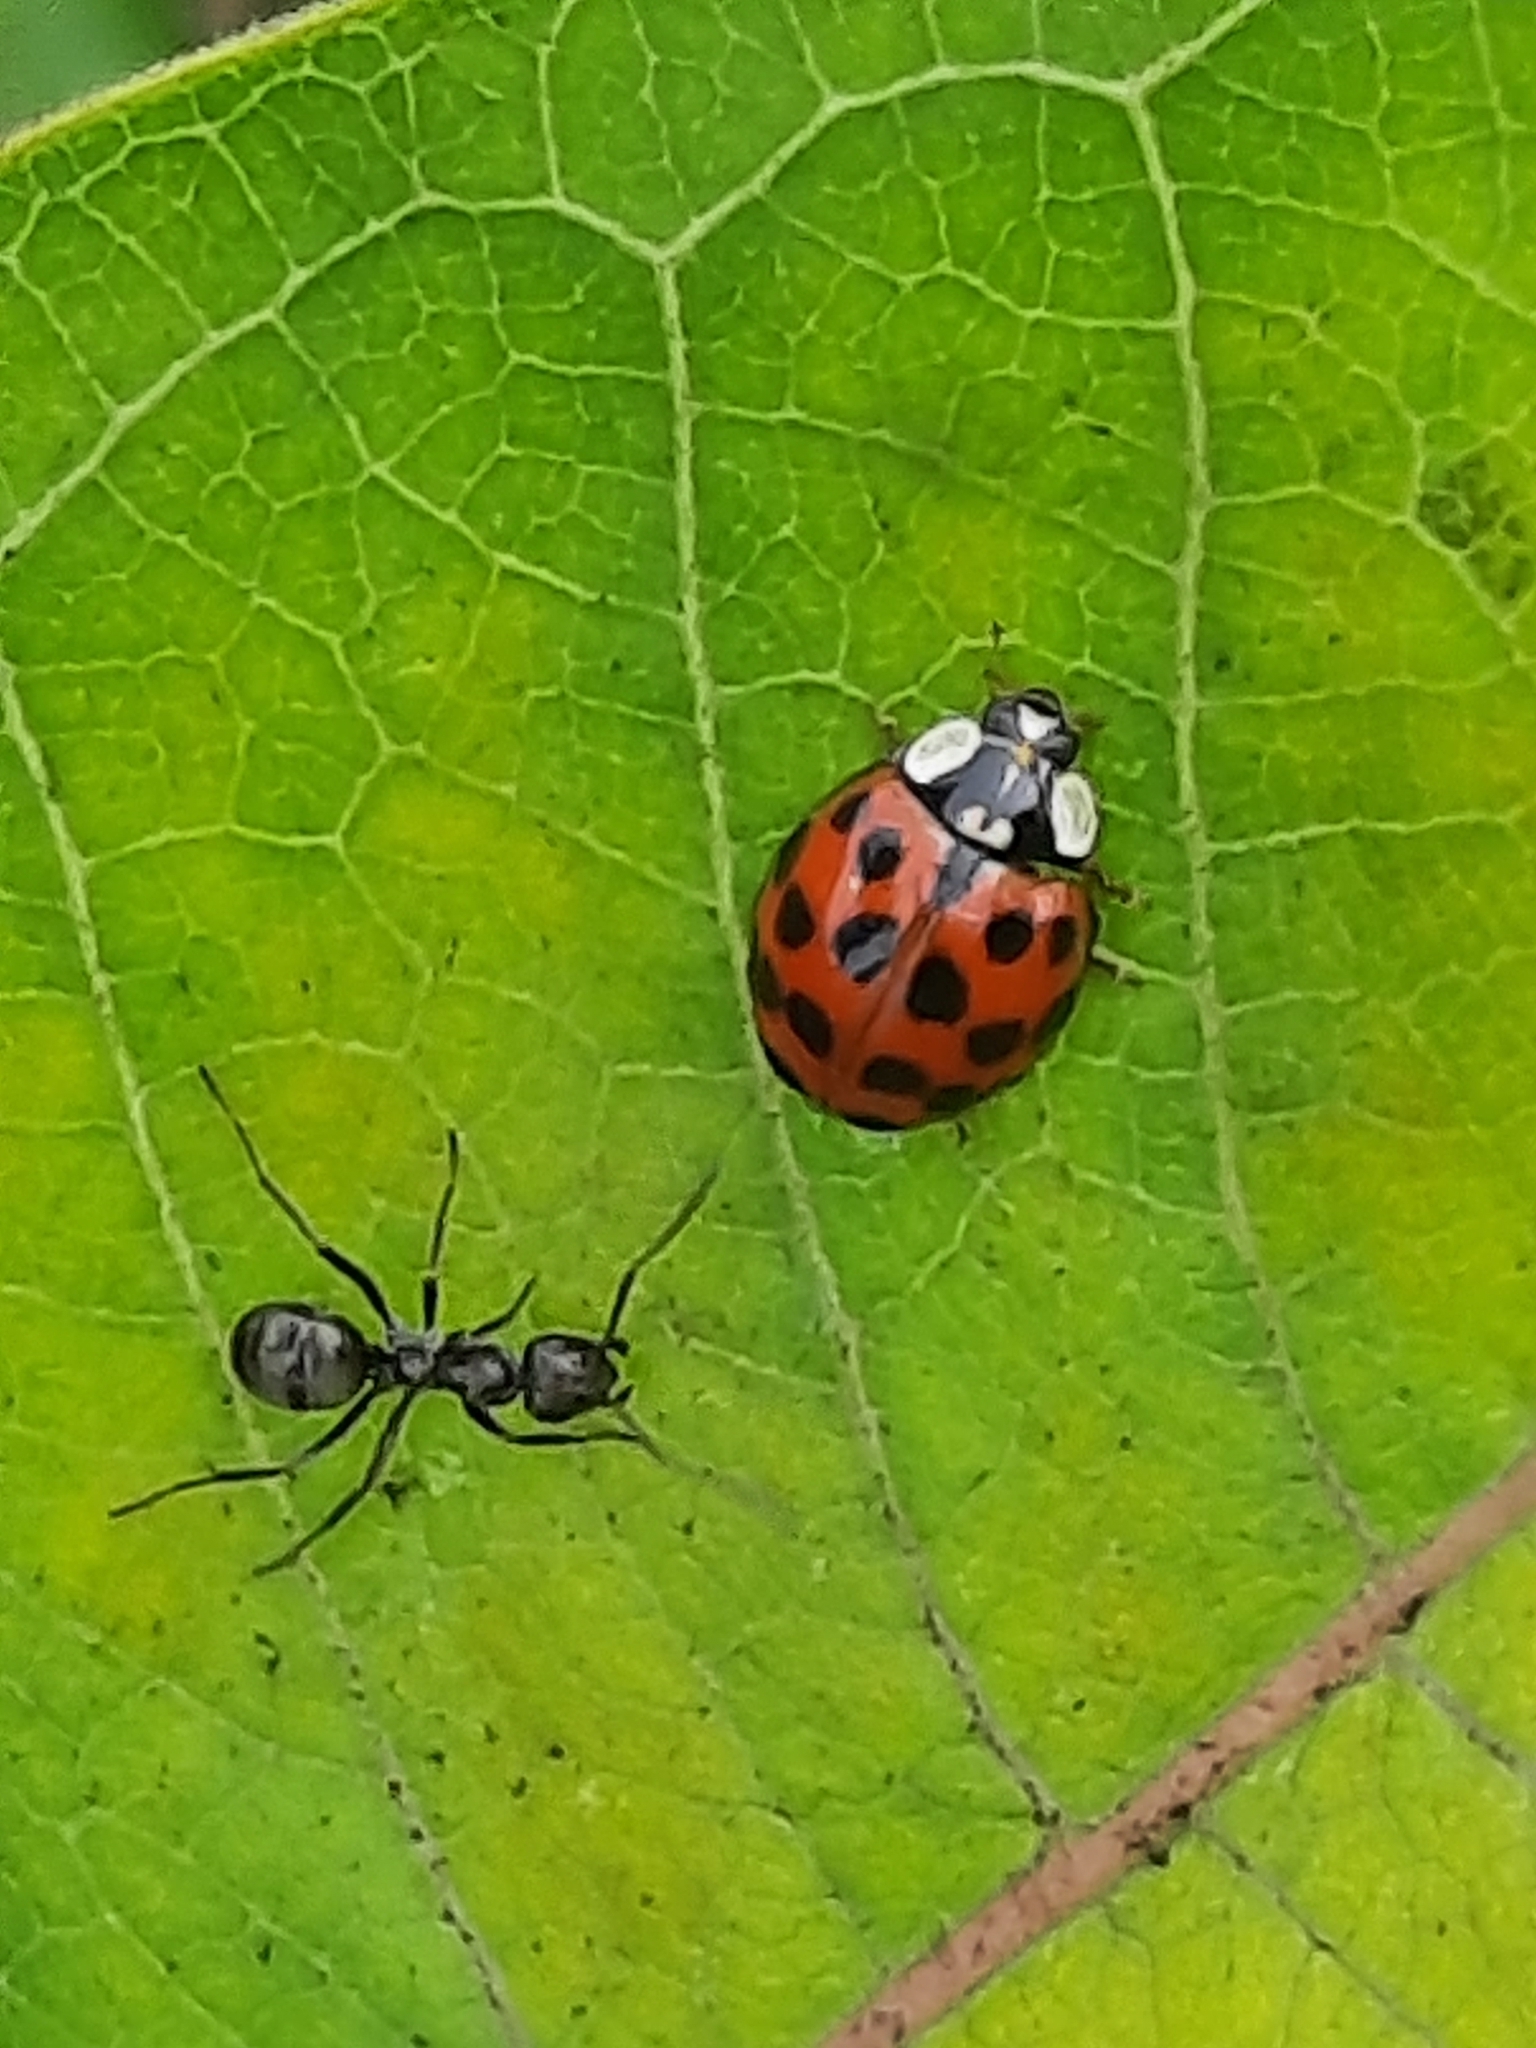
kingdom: Animalia
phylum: Arthropoda
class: Insecta
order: Coleoptera
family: Coccinellidae
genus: Harmonia
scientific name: Harmonia axyridis
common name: Harlequin ladybird
